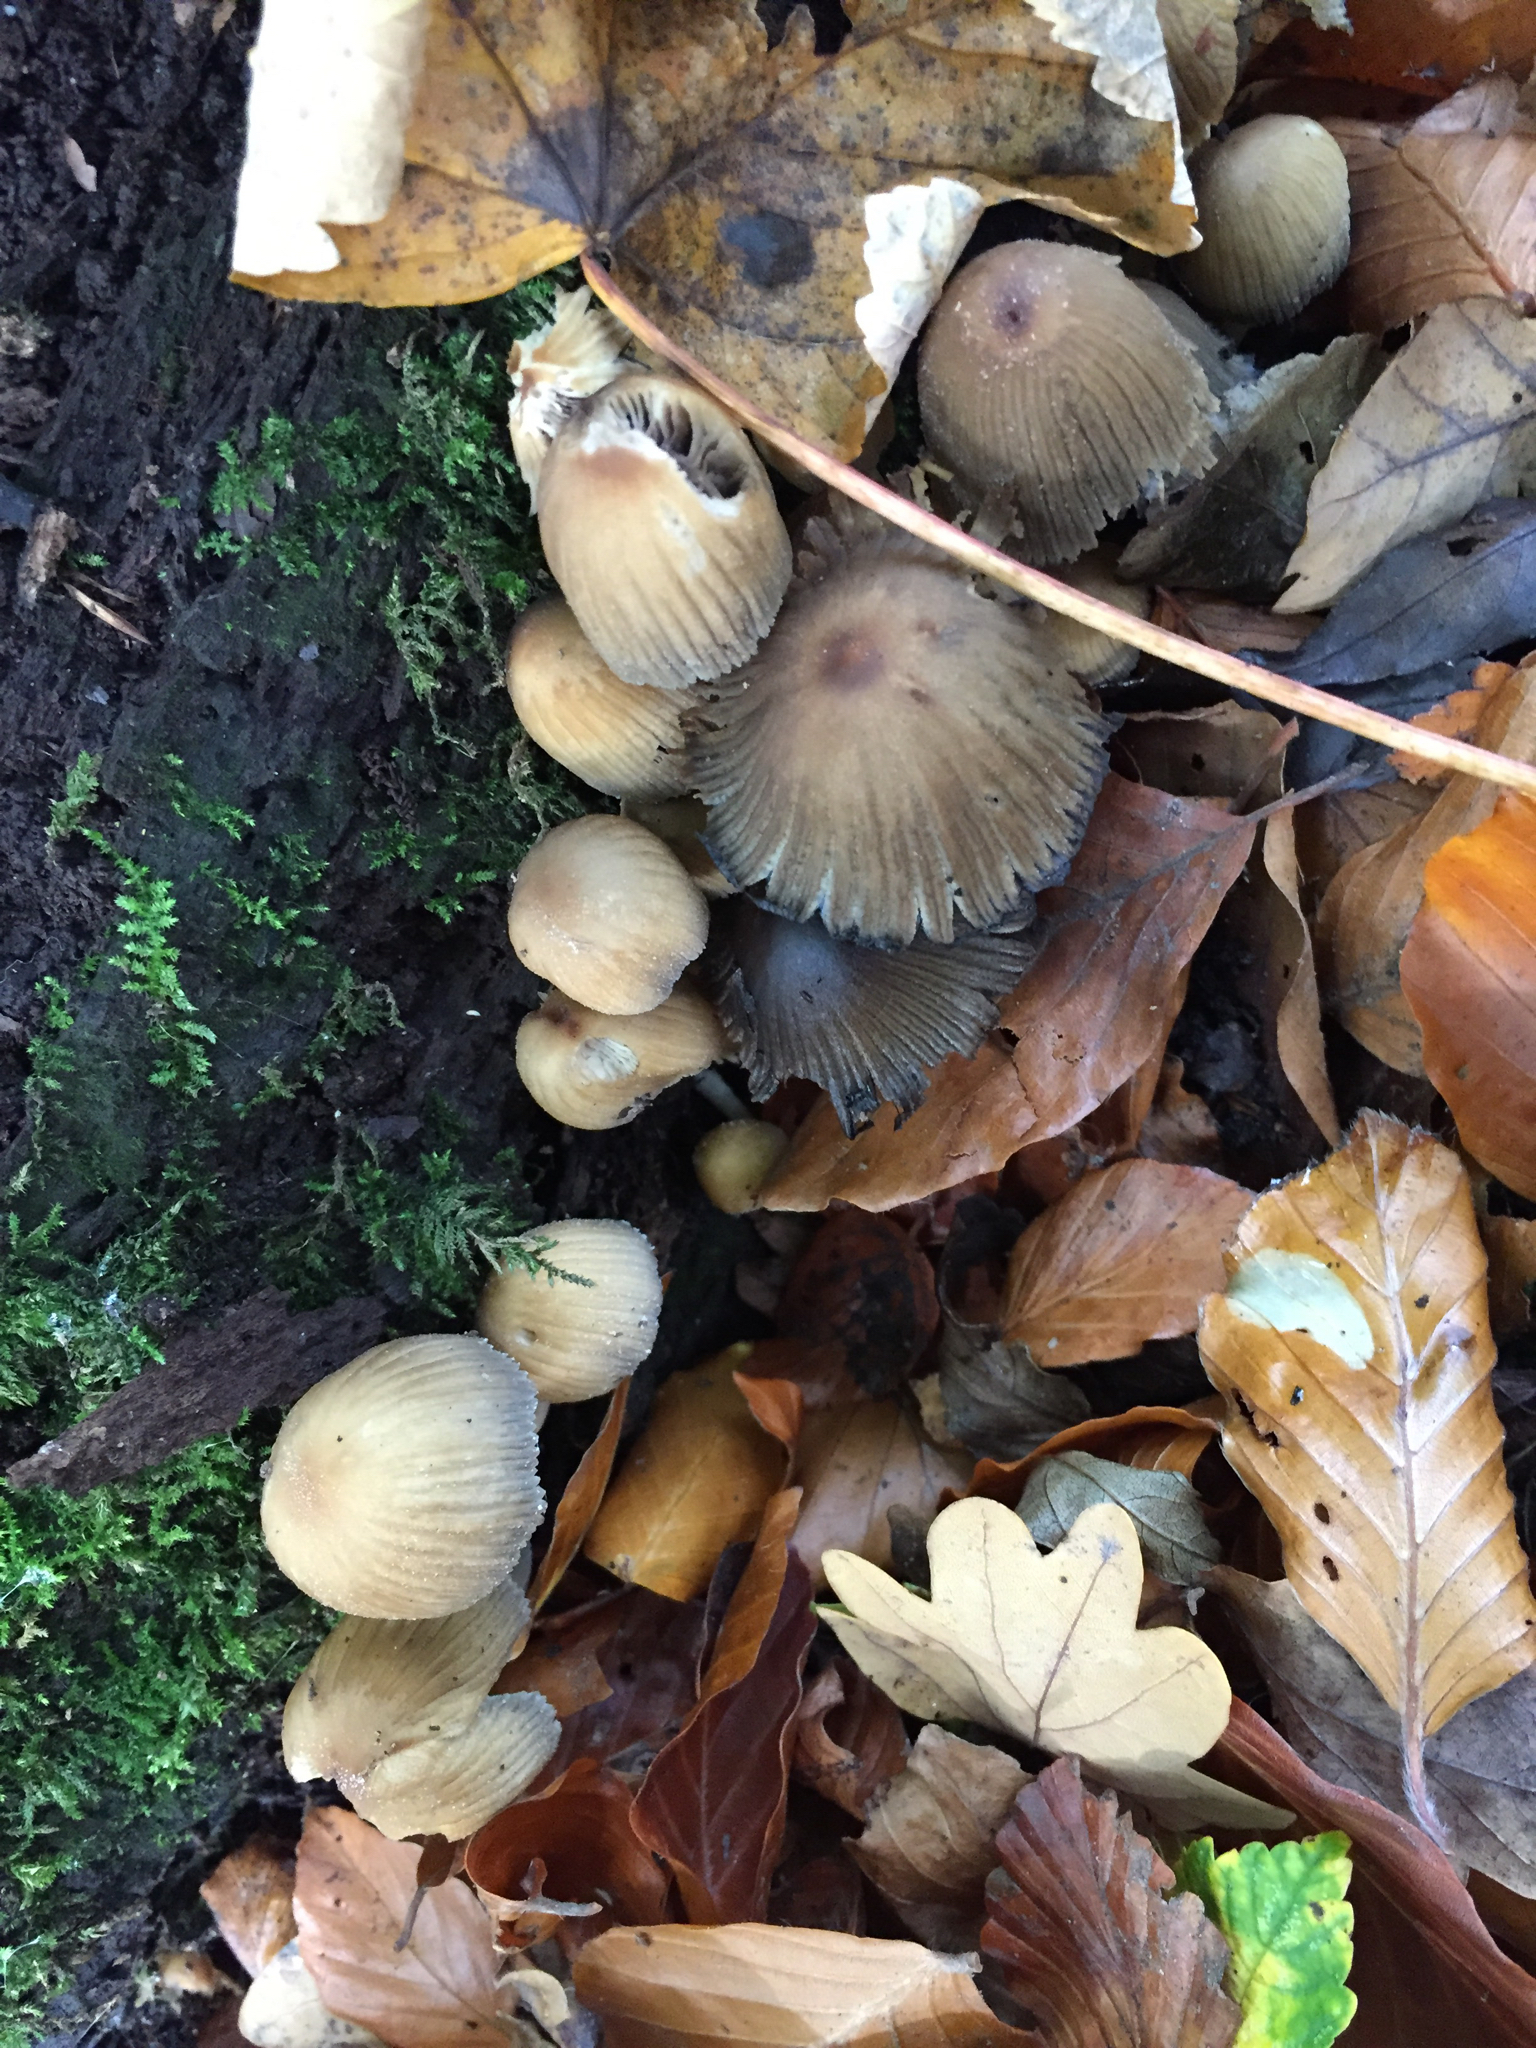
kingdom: Fungi
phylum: Basidiomycota
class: Agaricomycetes
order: Agaricales
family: Psathyrellaceae
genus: Coprinellus
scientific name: Coprinellus micaceus
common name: Glistening ink-cap
